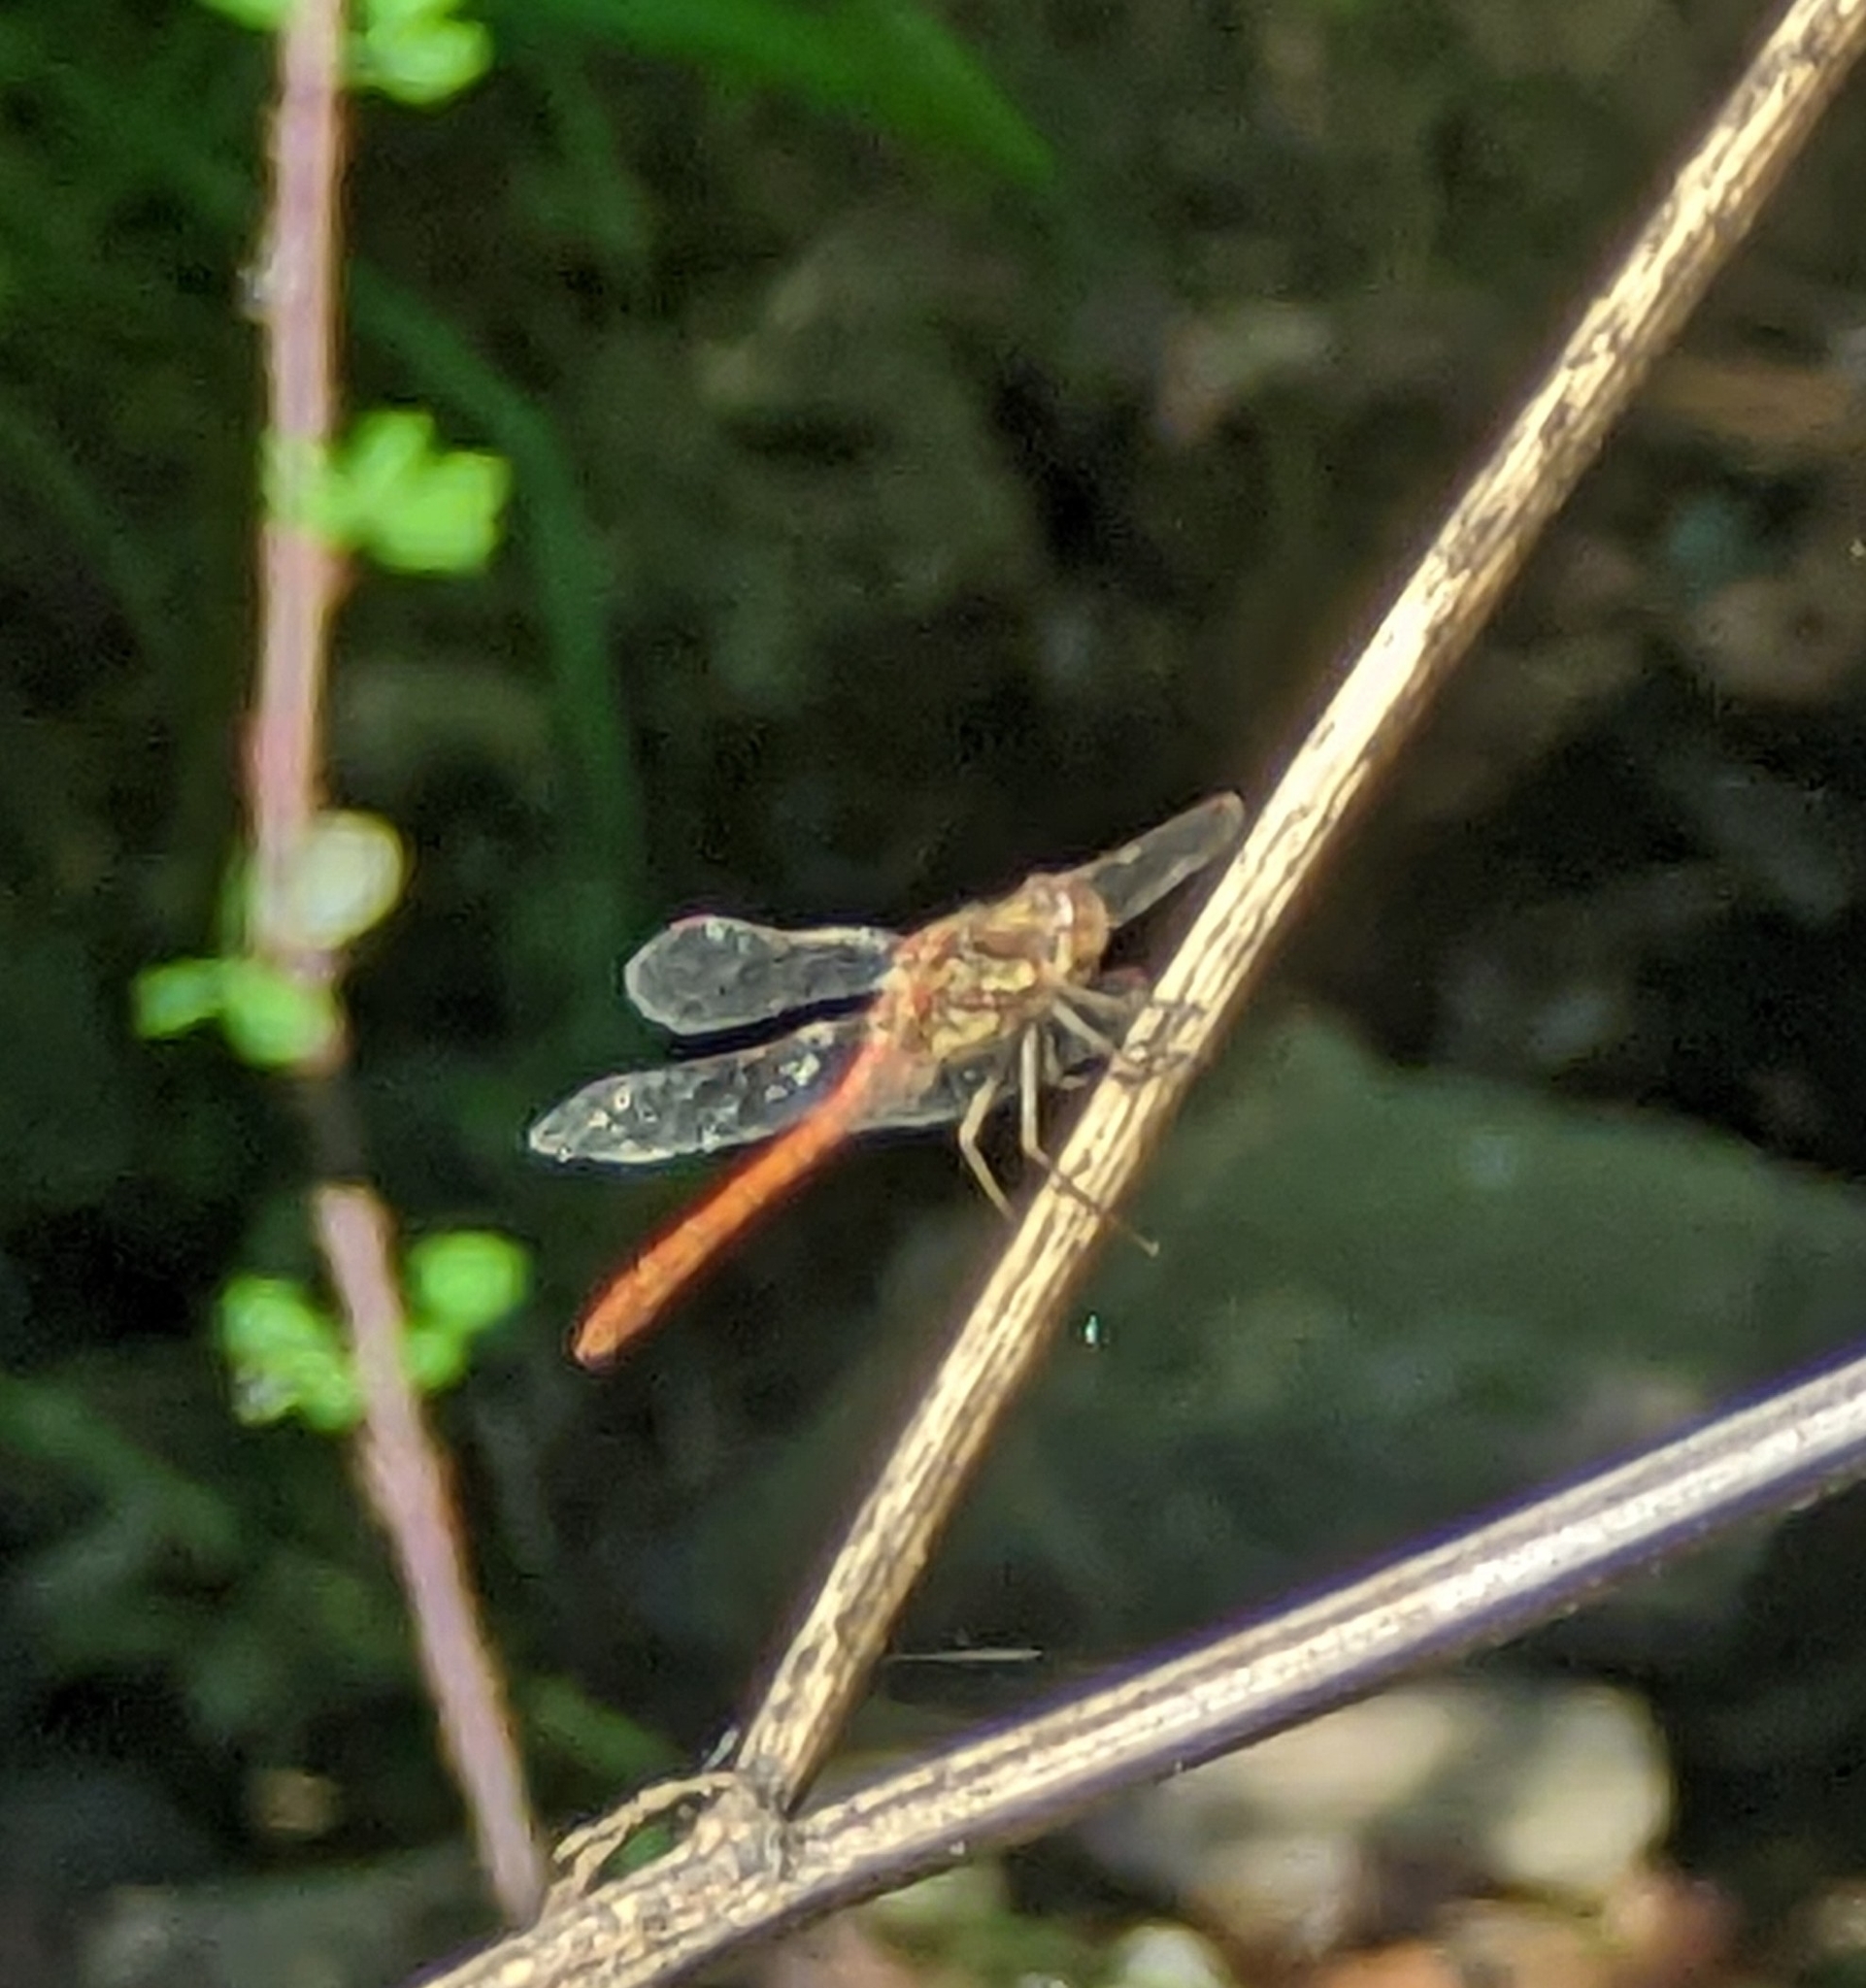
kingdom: Animalia
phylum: Arthropoda
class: Insecta
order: Odonata
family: Libellulidae
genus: Sympetrum
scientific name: Sympetrum striolatum
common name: Common darter
